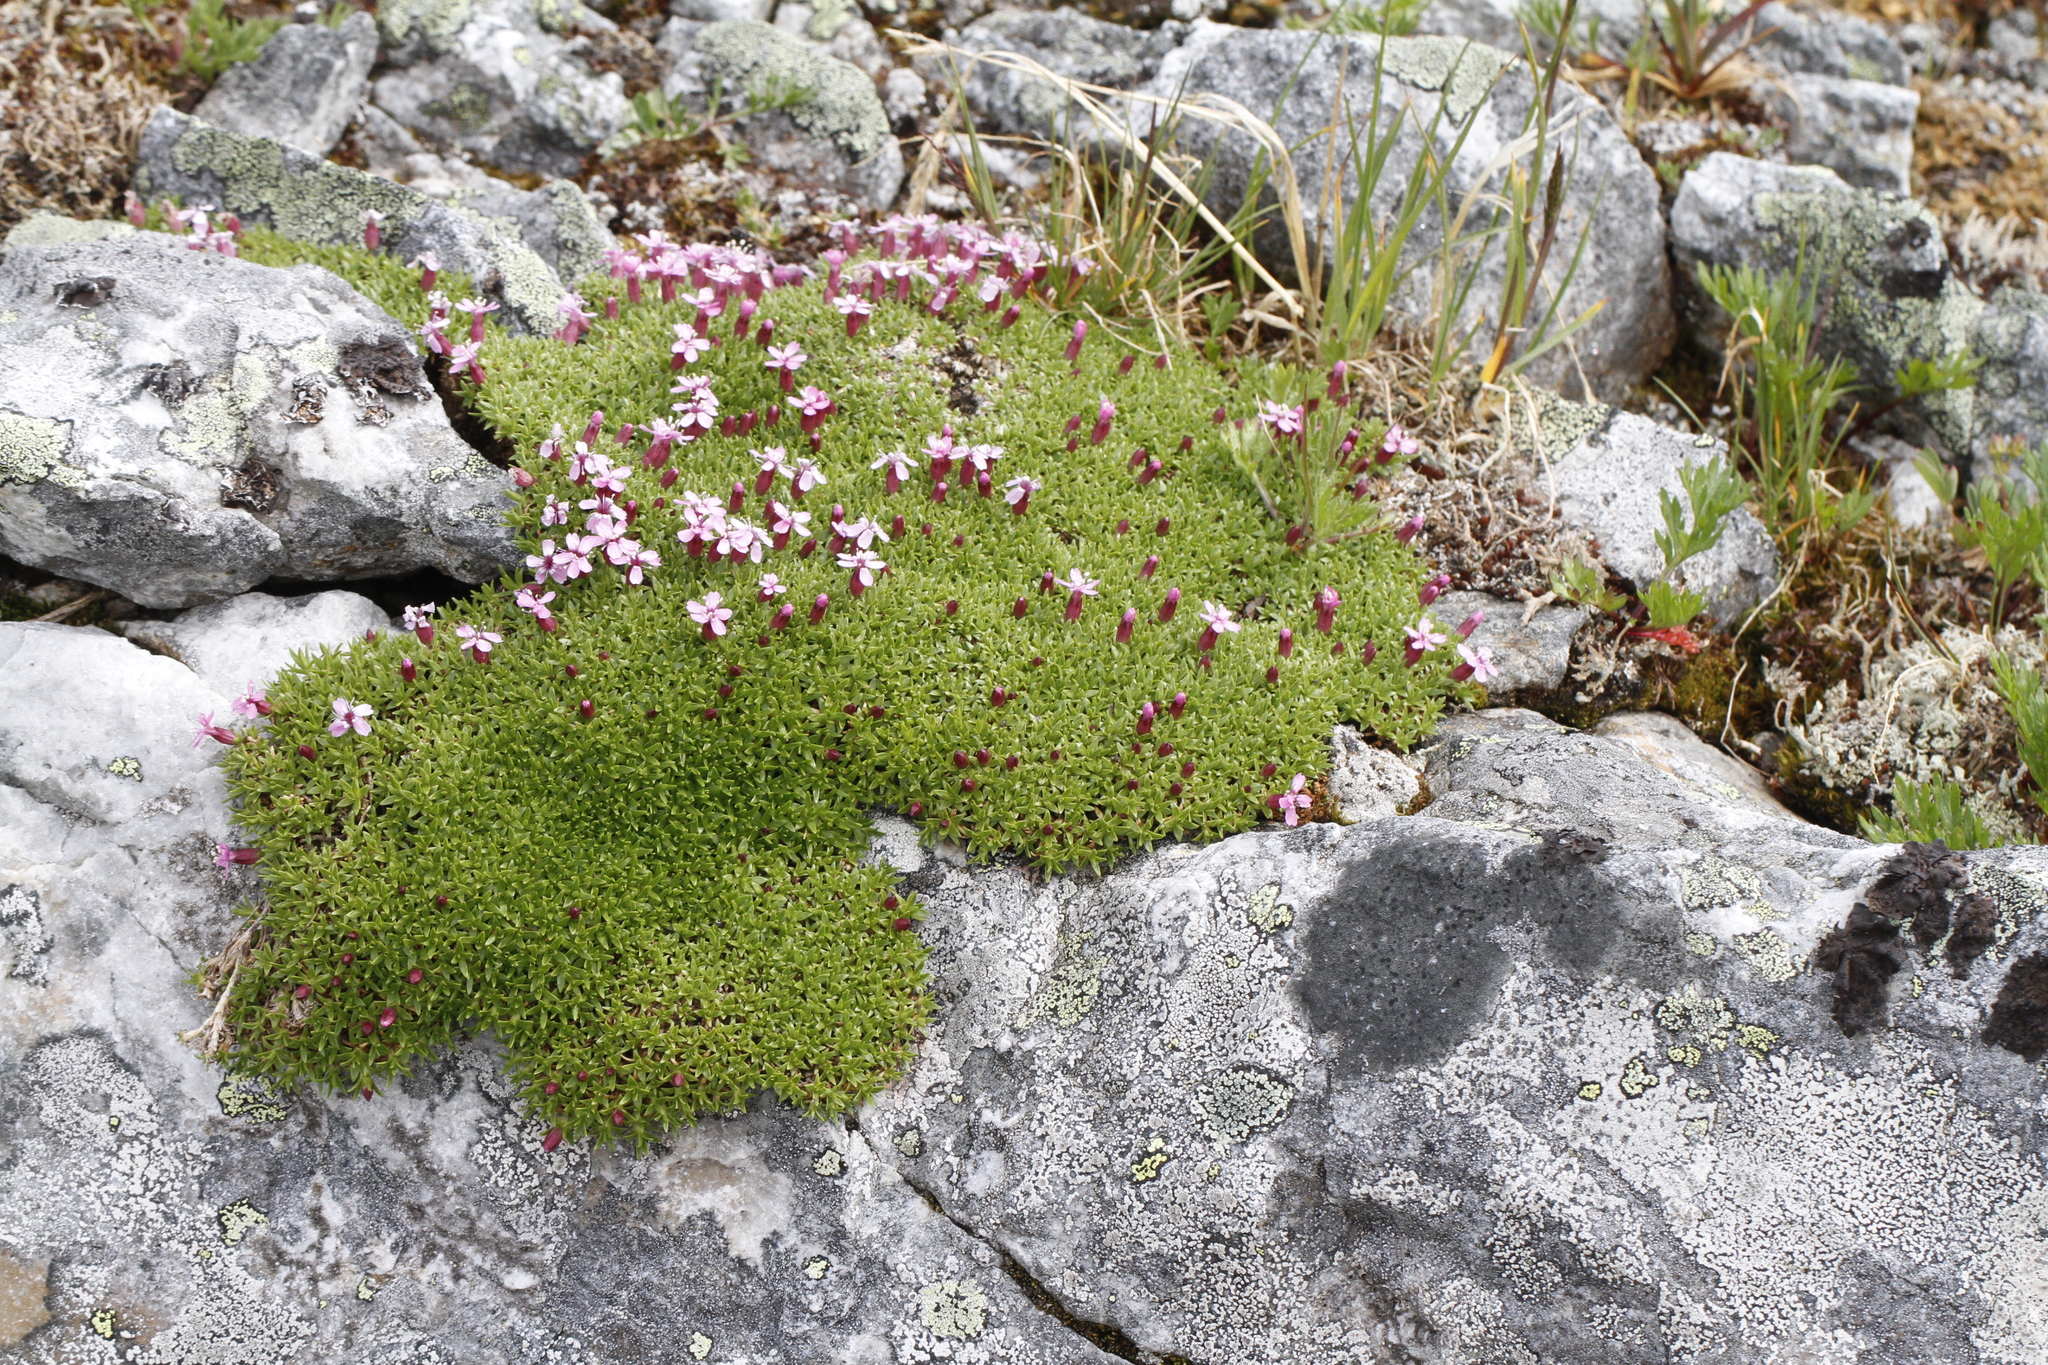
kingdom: Plantae
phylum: Tracheophyta
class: Magnoliopsida
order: Caryophyllales
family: Caryophyllaceae
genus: Silene
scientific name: Silene acaulis
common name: Moss campion
